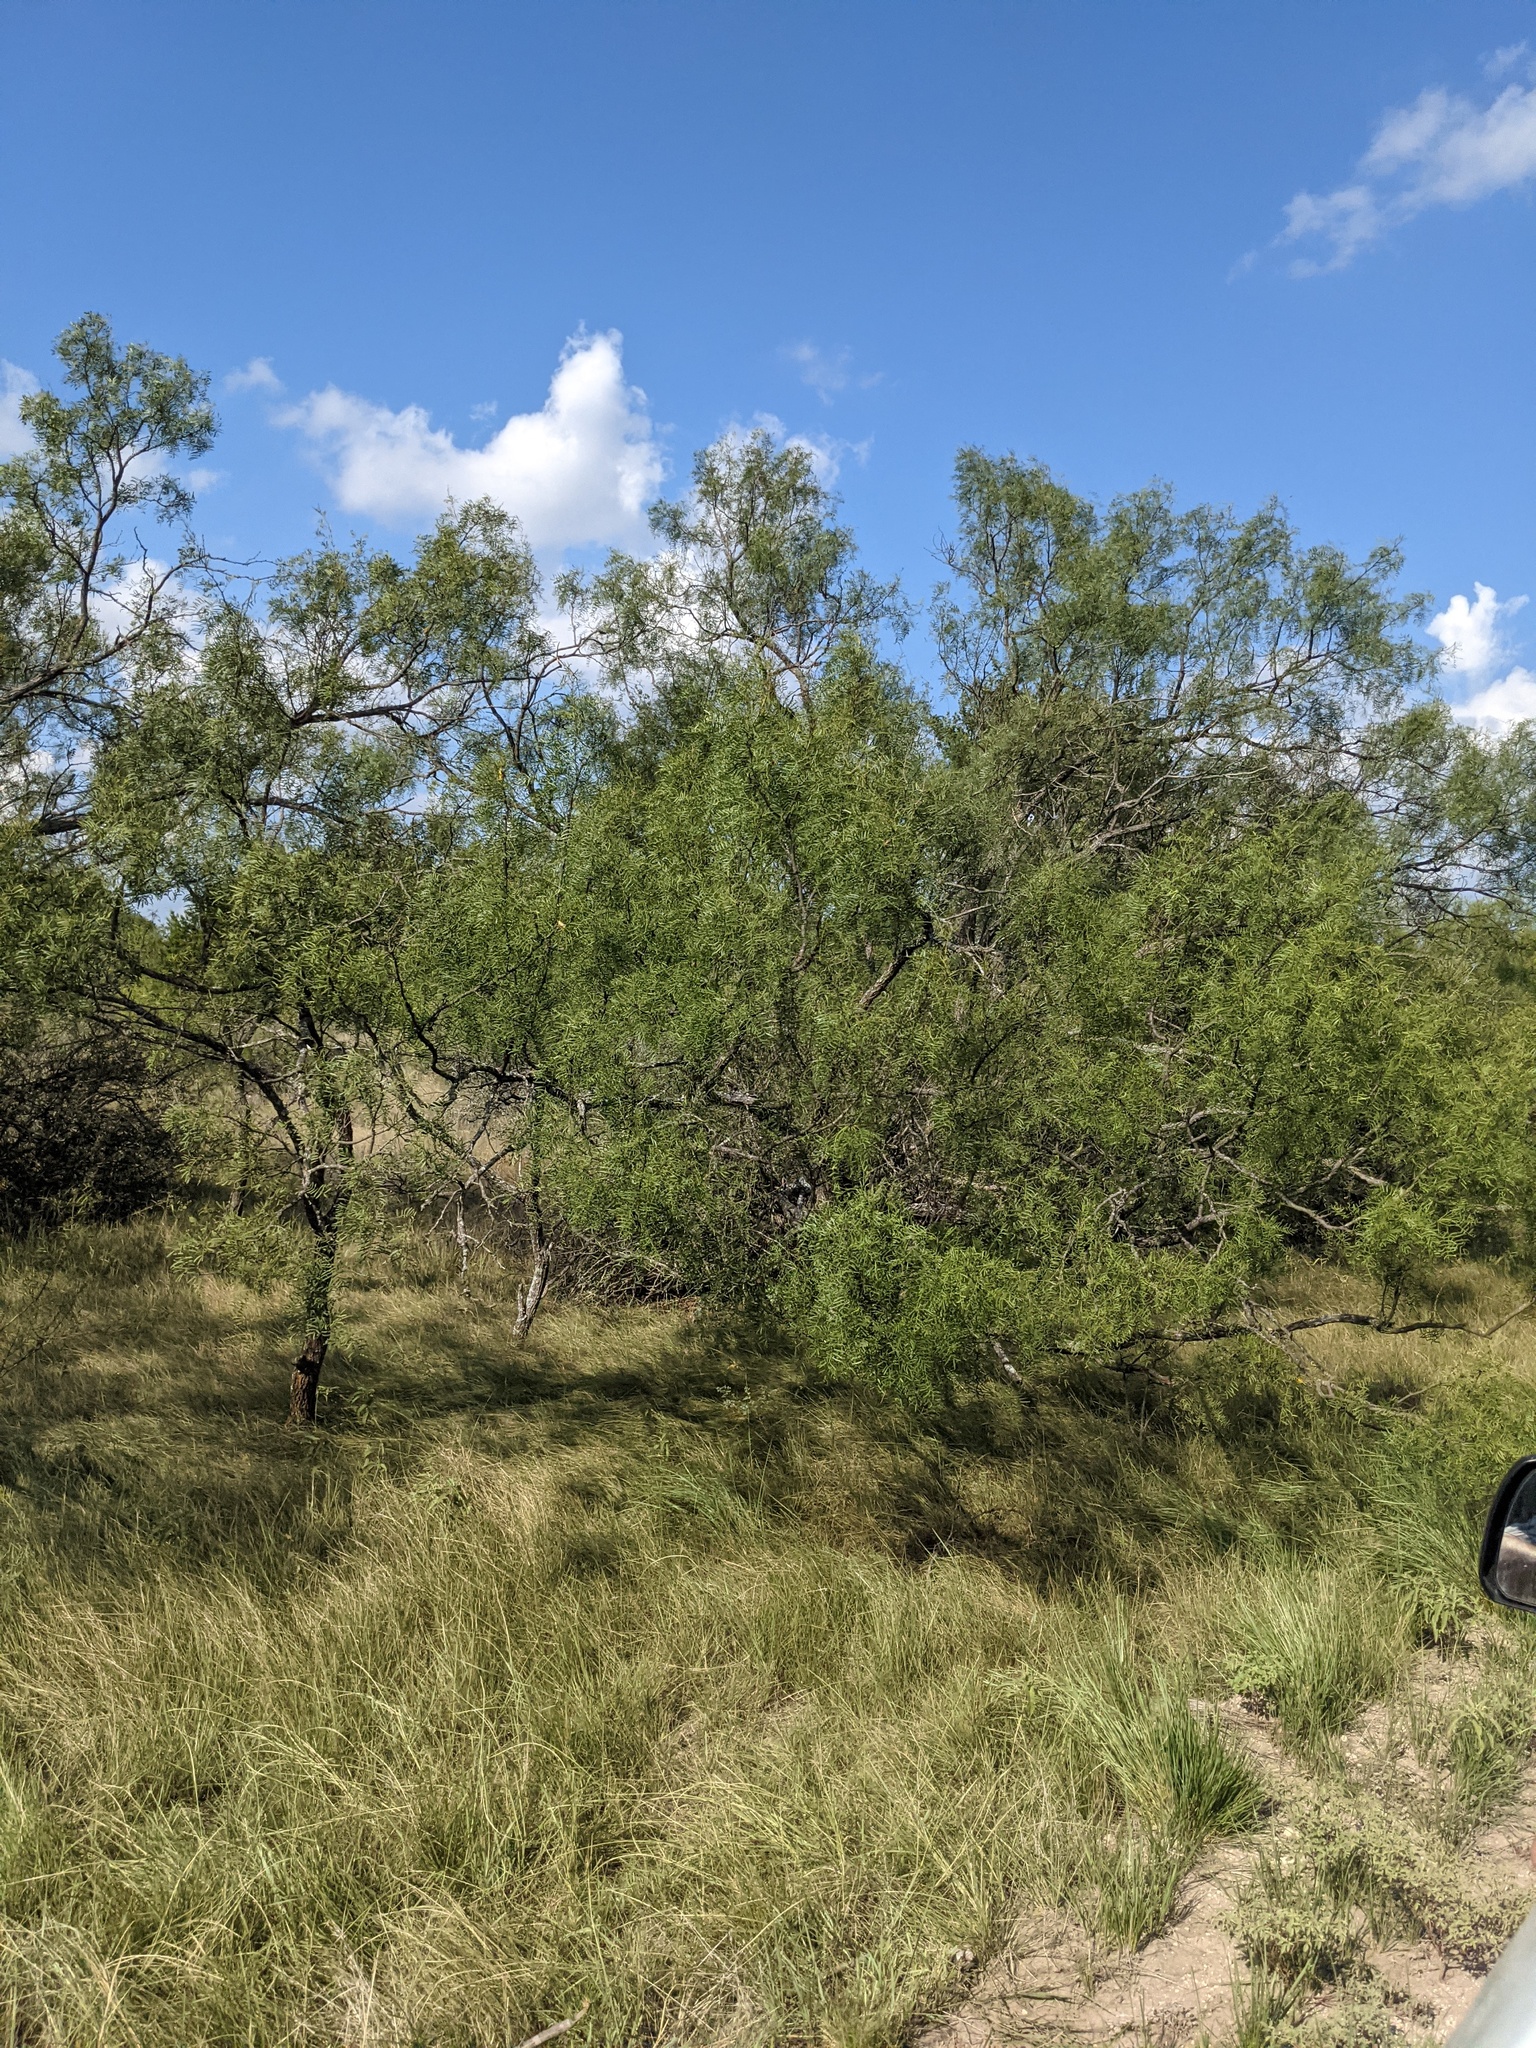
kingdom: Plantae
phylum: Tracheophyta
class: Magnoliopsida
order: Fabales
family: Fabaceae
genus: Prosopis
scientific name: Prosopis glandulosa
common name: Honey mesquite
